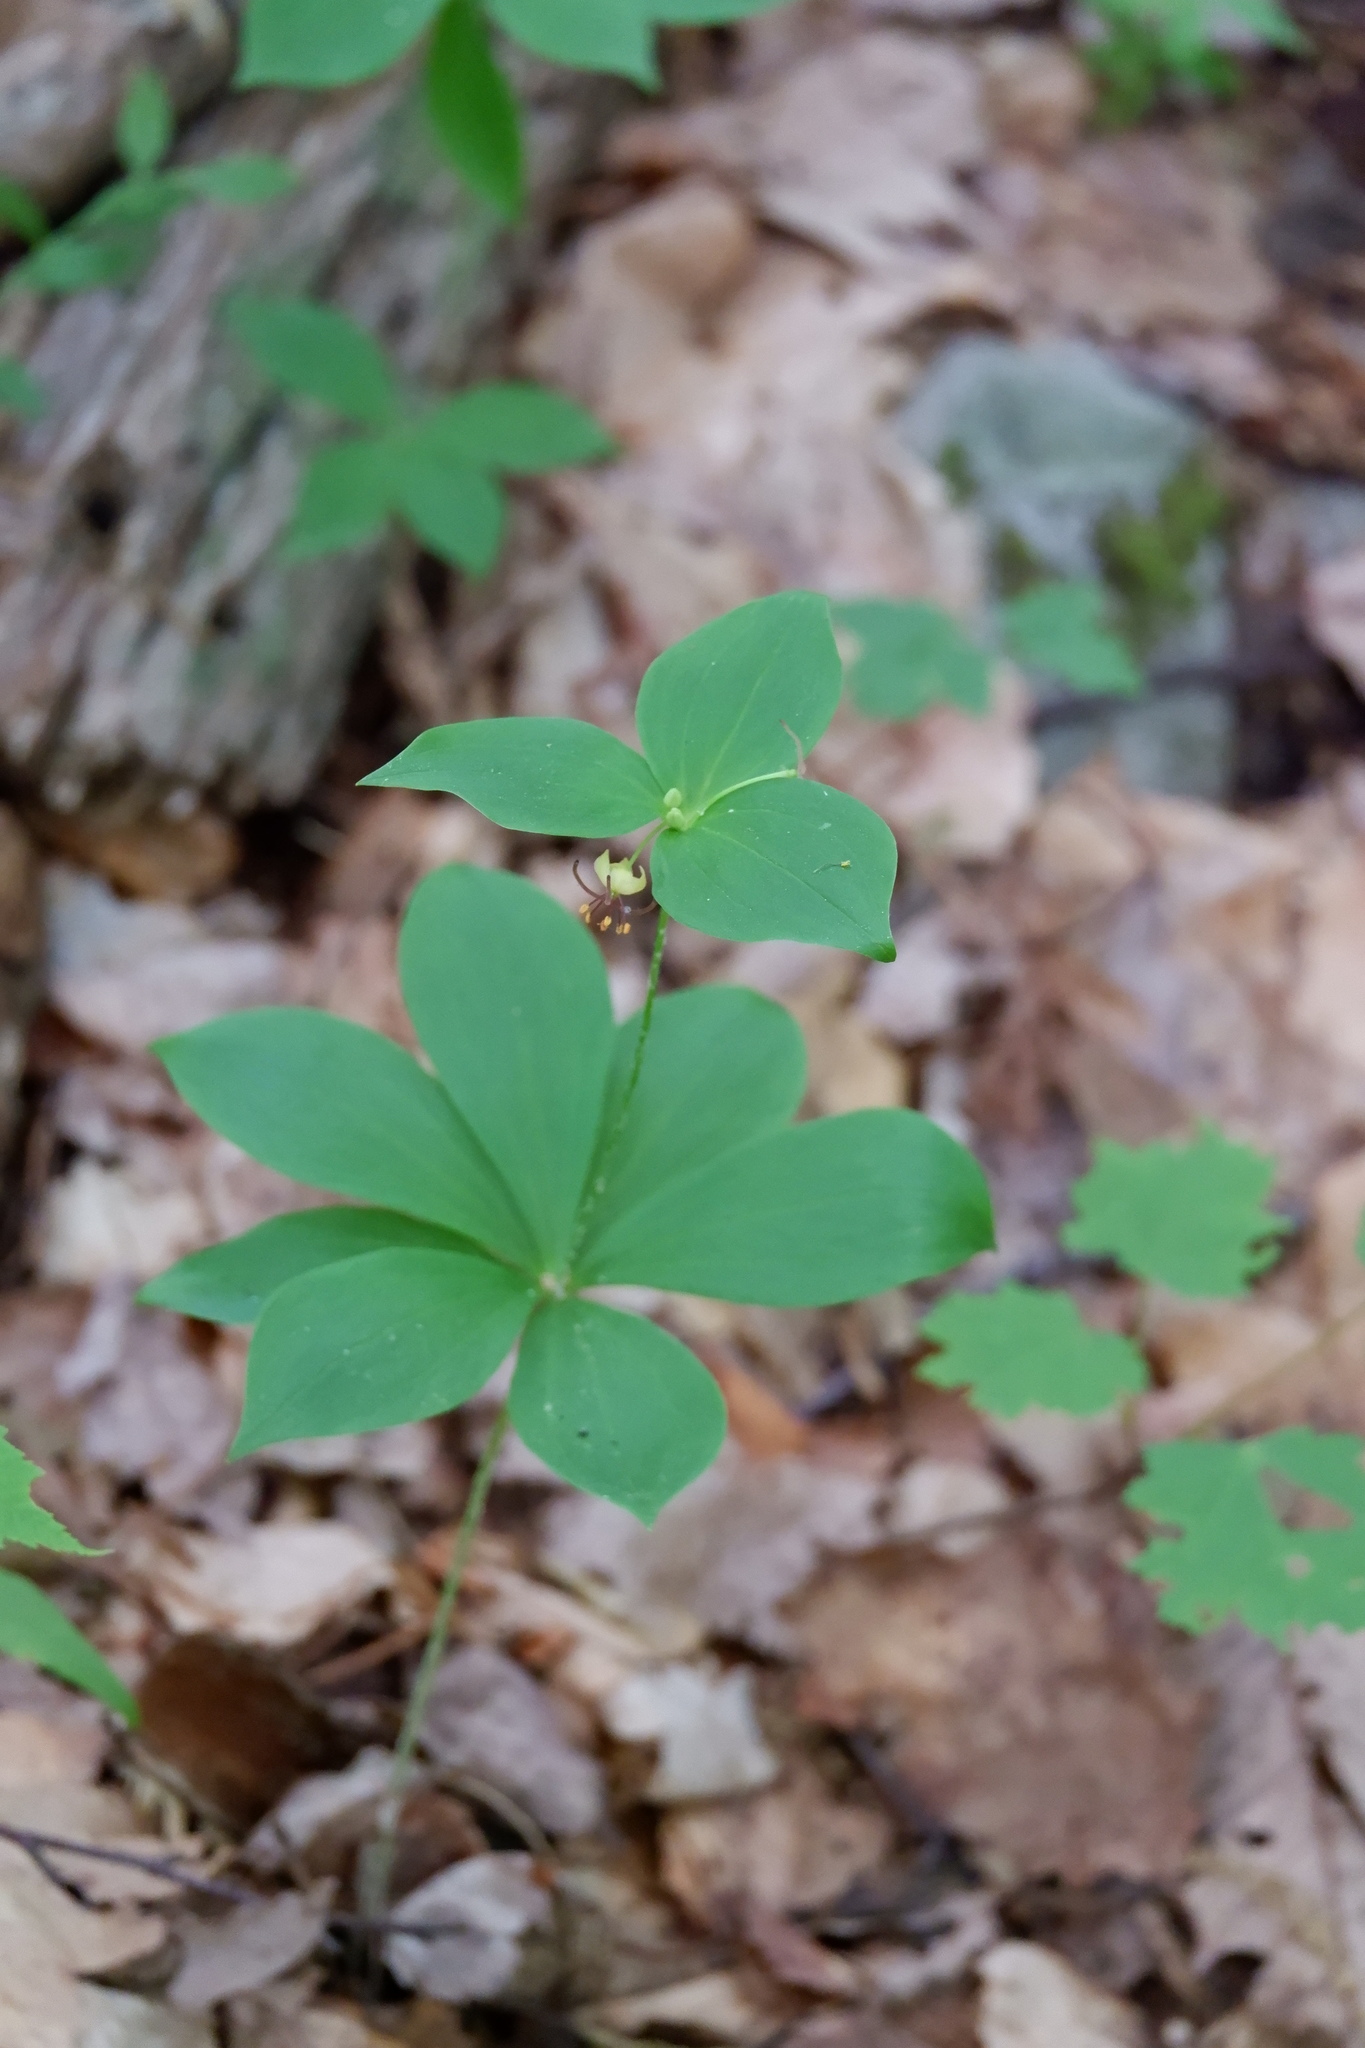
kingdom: Plantae
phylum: Tracheophyta
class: Liliopsida
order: Liliales
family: Liliaceae
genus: Medeola
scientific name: Medeola virginiana
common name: Indian cucumber-root
